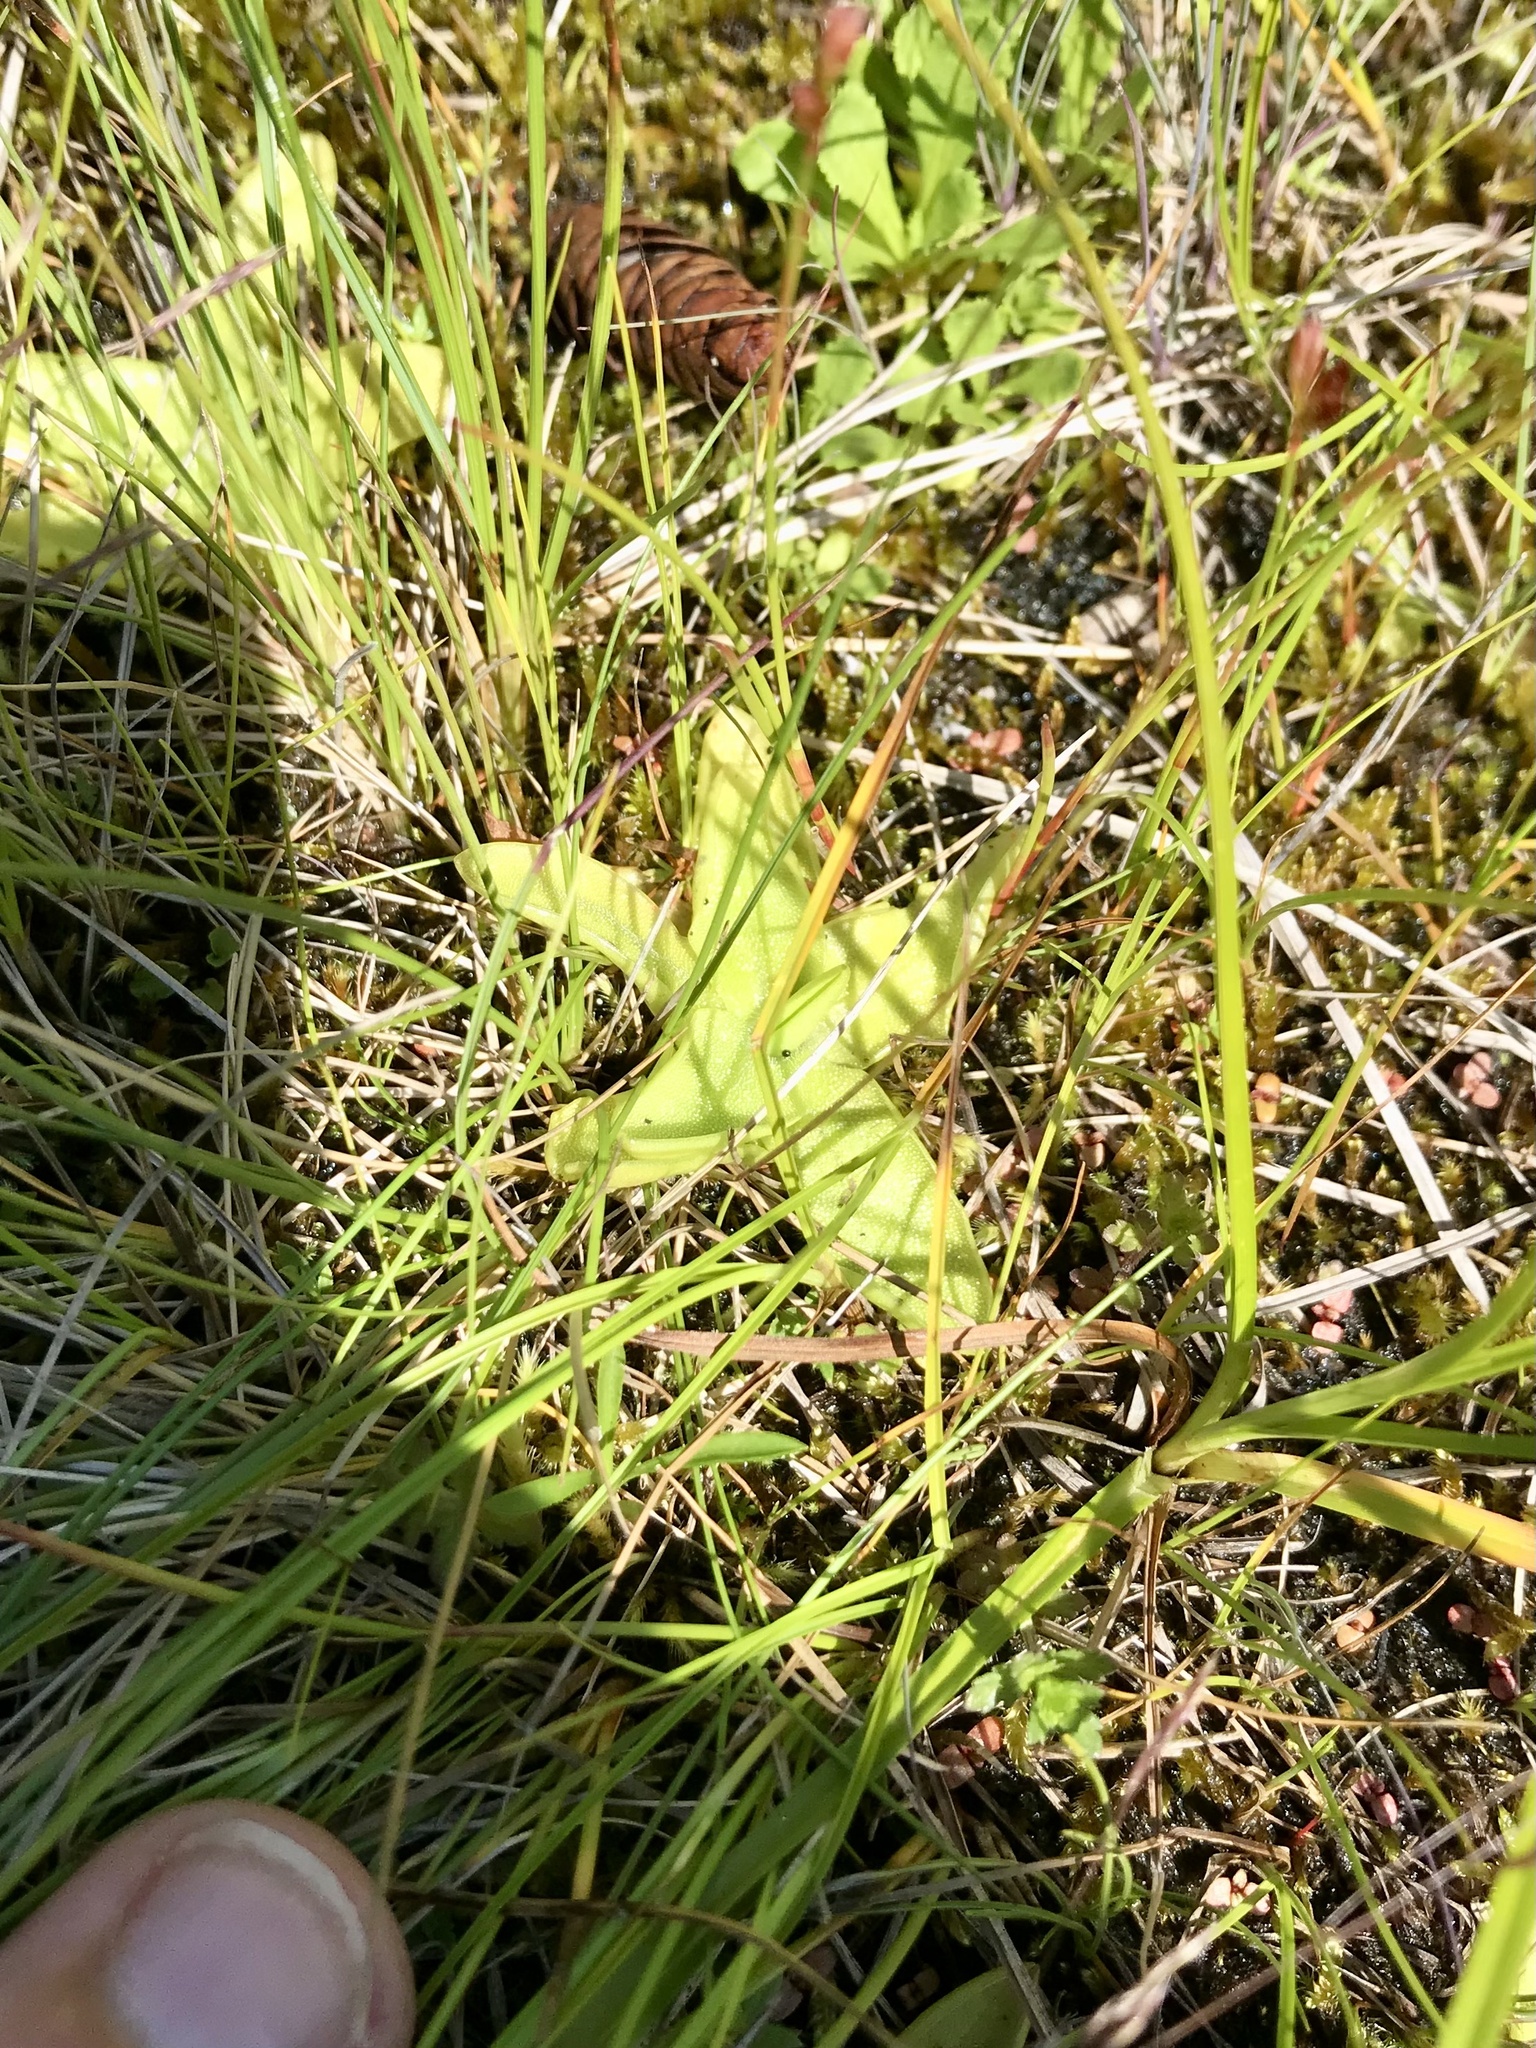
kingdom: Plantae
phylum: Tracheophyta
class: Magnoliopsida
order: Lamiales
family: Lentibulariaceae
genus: Pinguicula
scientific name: Pinguicula vulgaris
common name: Common butterwort
